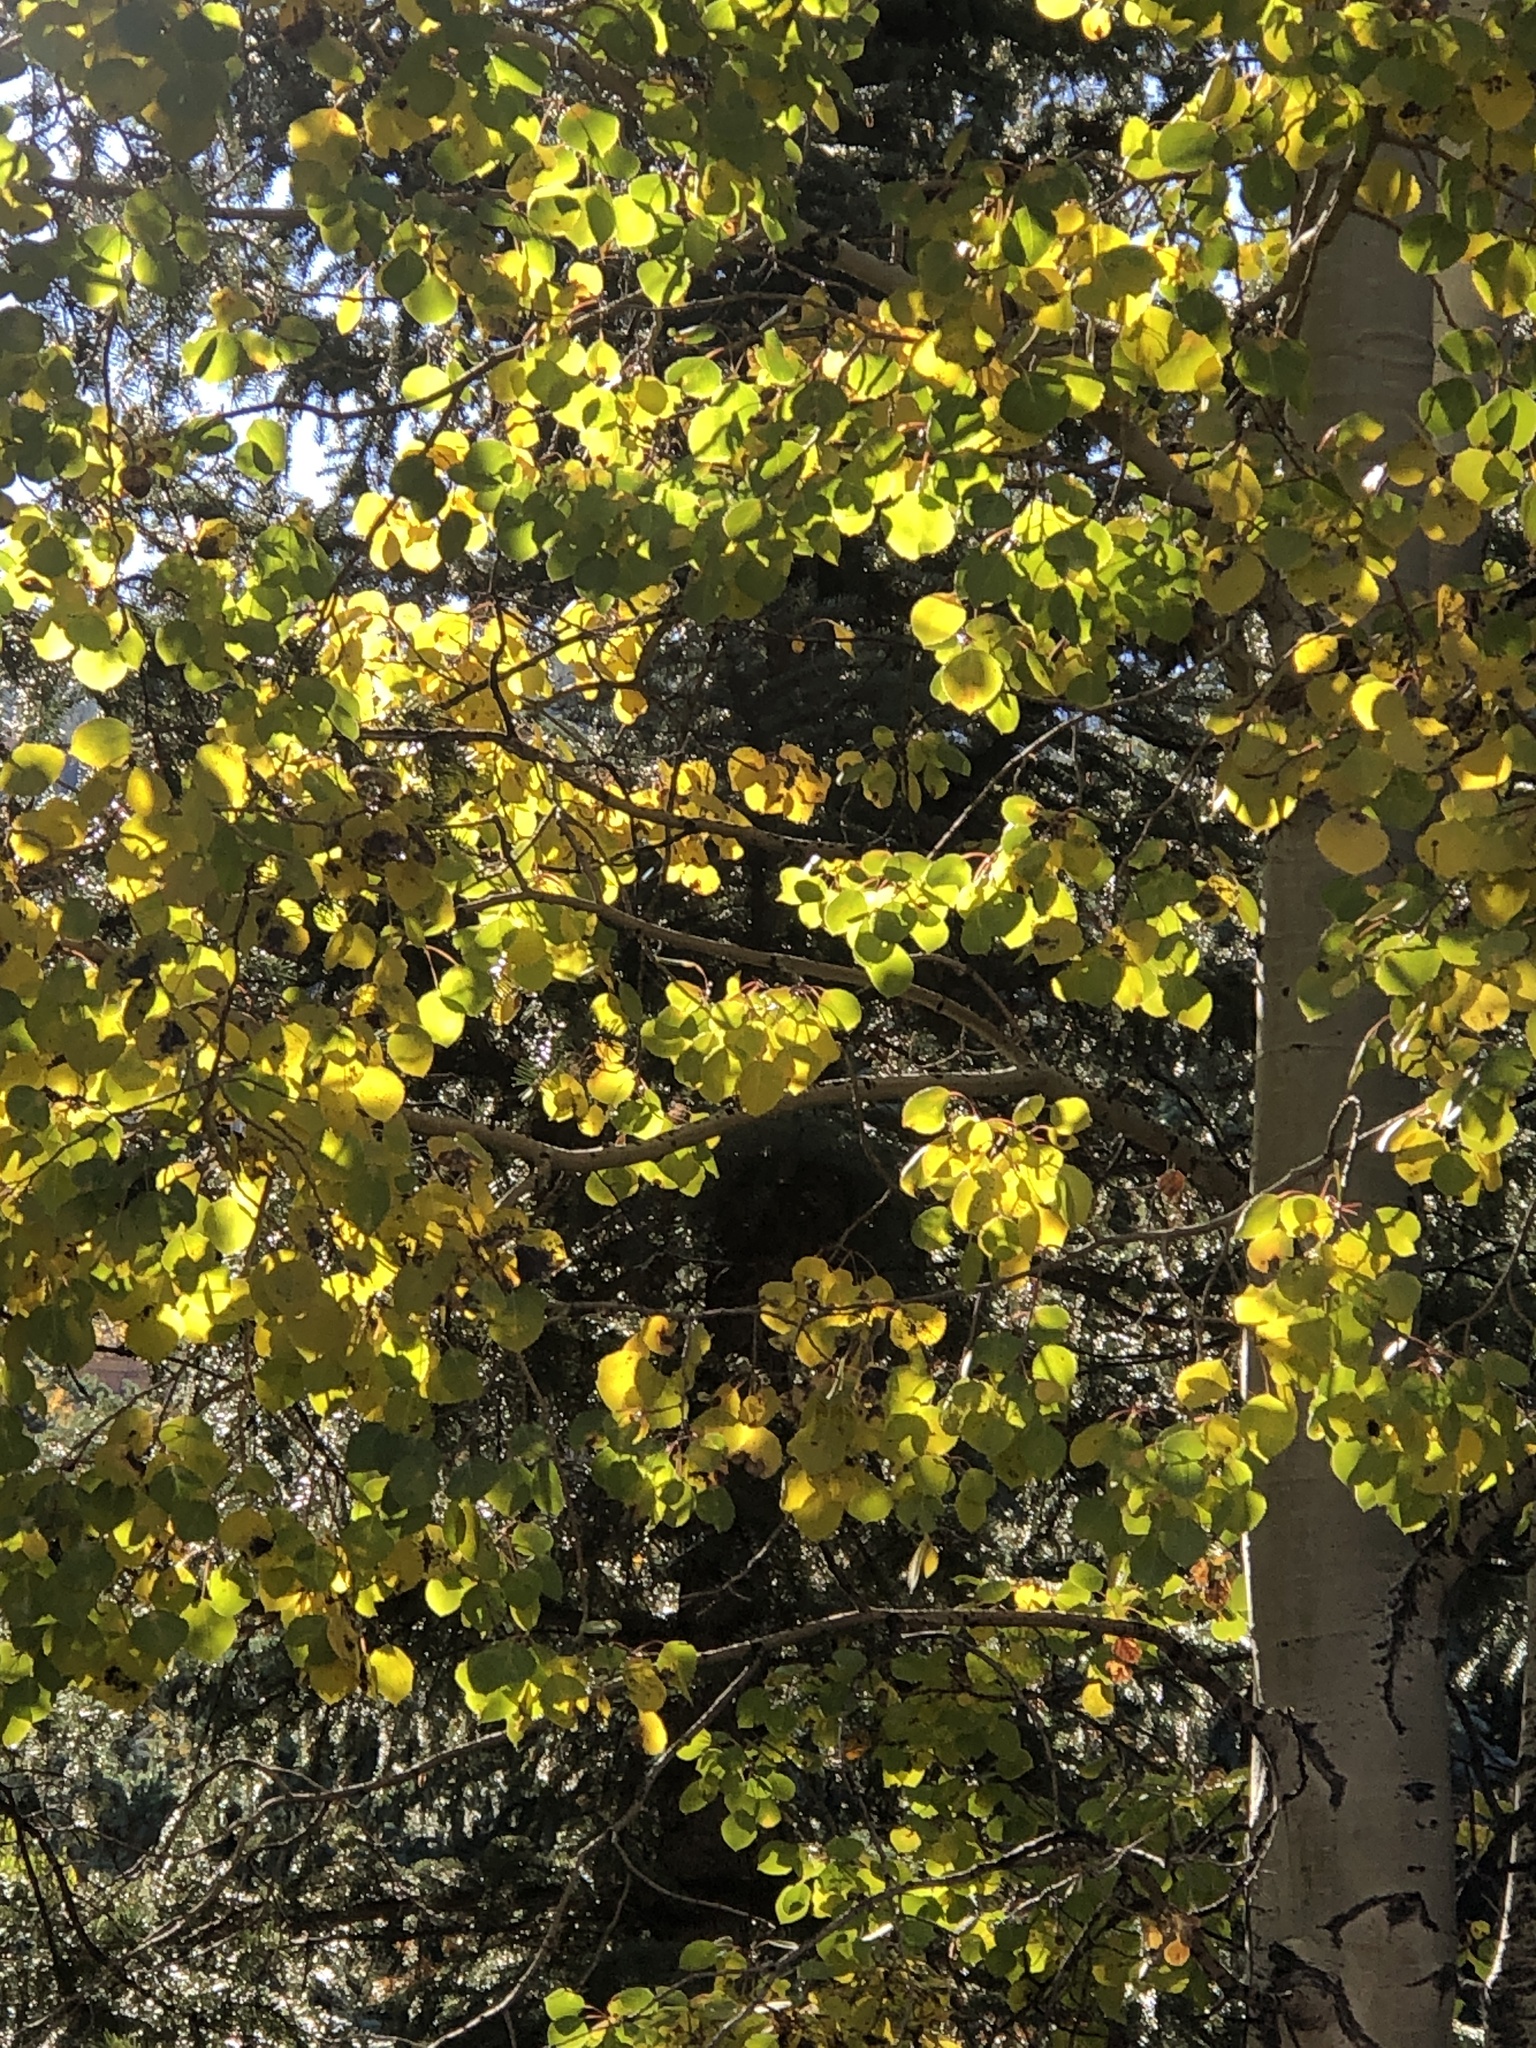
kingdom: Plantae
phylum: Tracheophyta
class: Magnoliopsida
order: Malpighiales
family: Salicaceae
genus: Populus
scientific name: Populus tremuloides
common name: Quaking aspen
